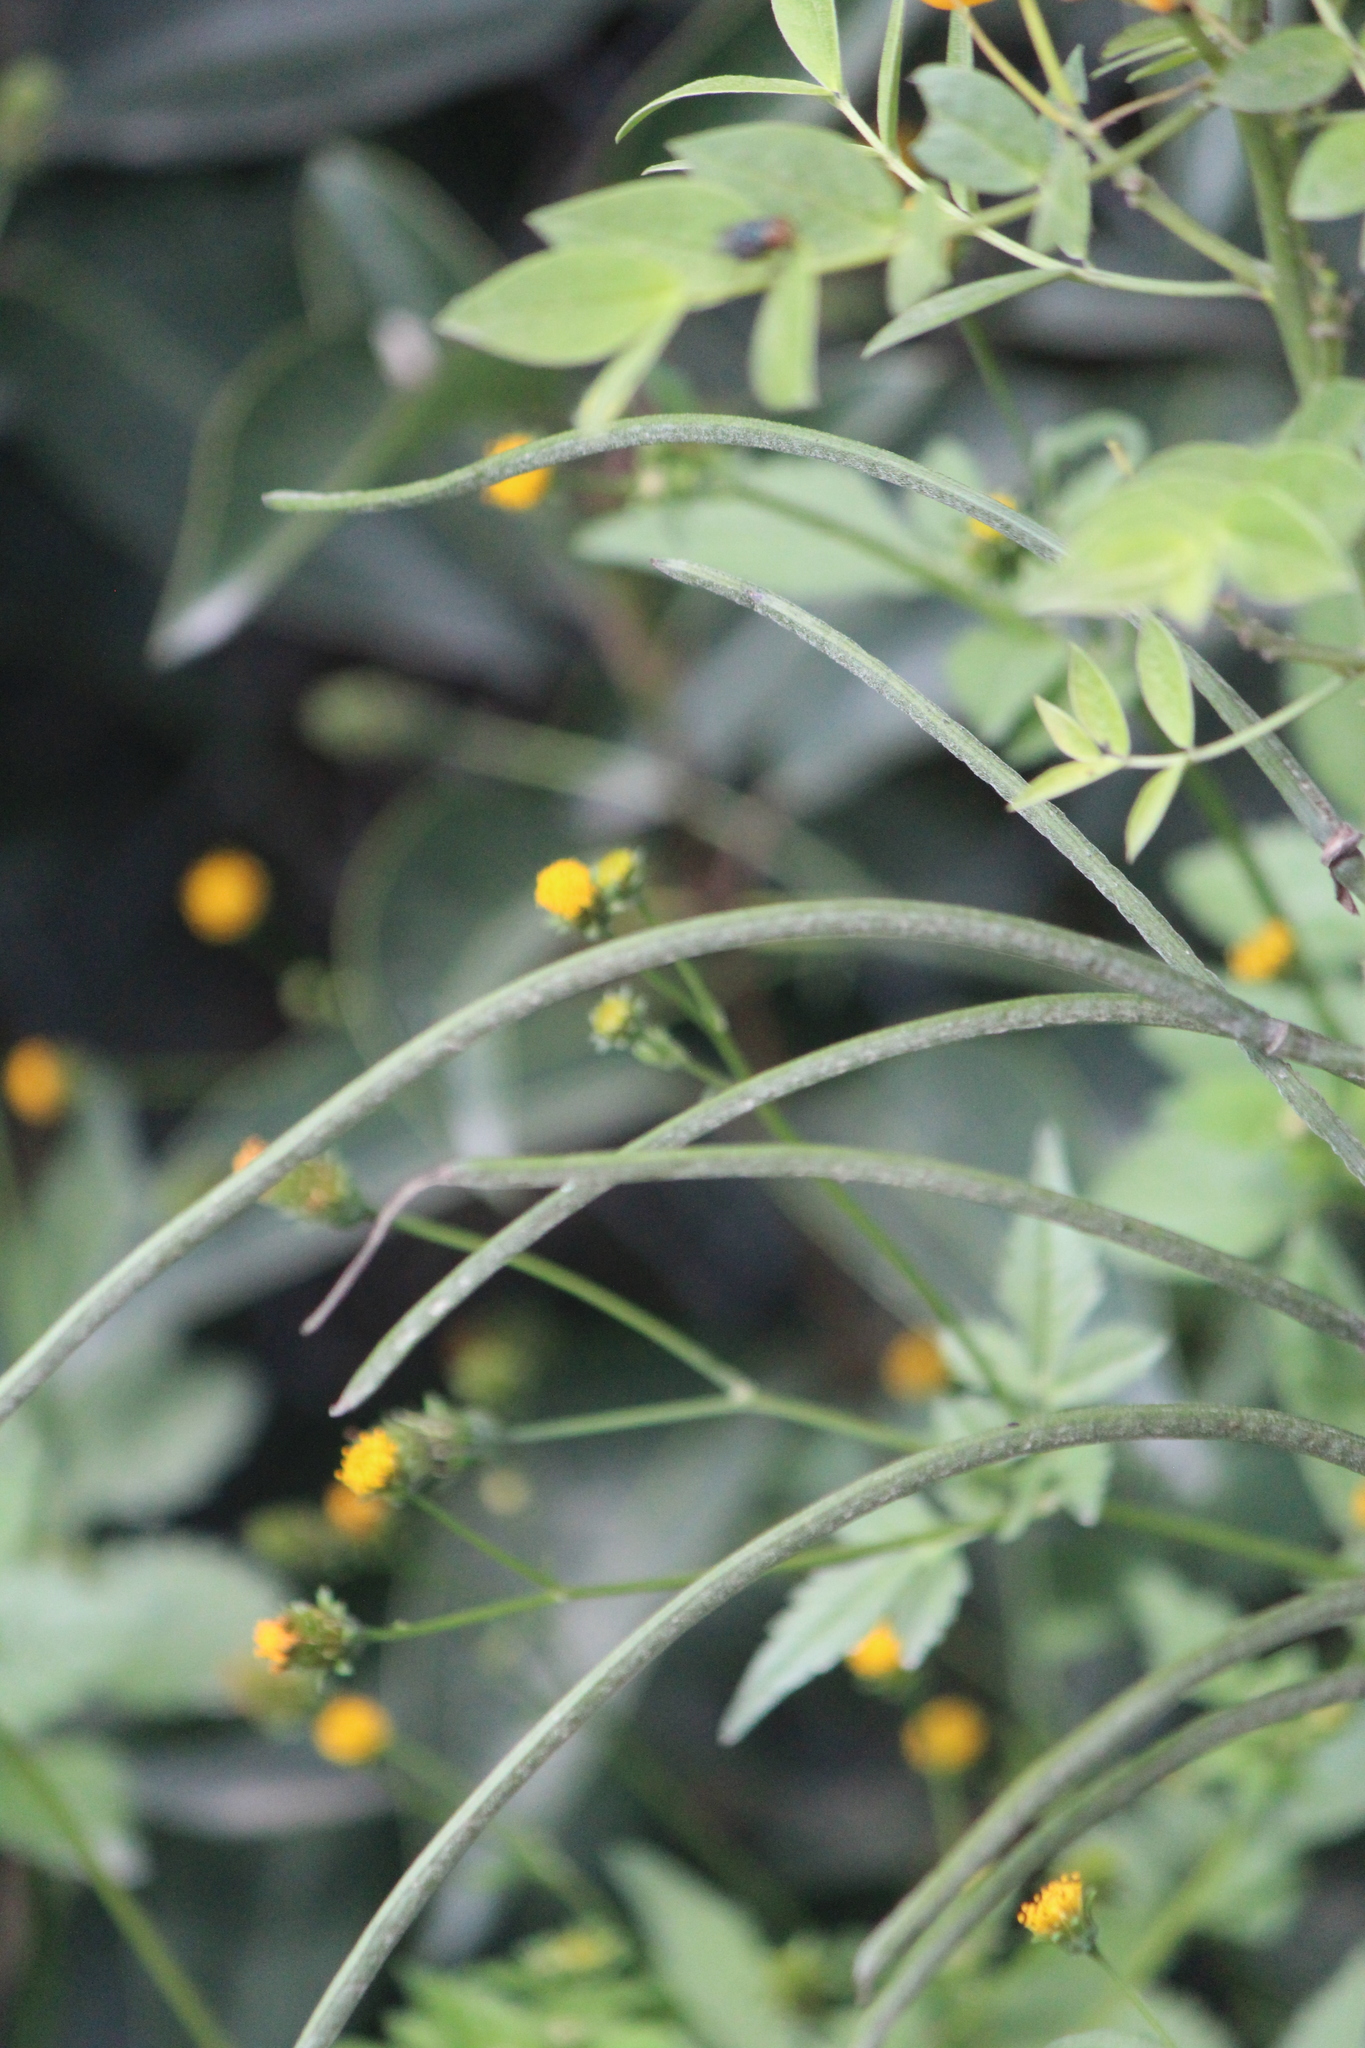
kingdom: Plantae
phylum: Tracheophyta
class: Magnoliopsida
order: Fabales
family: Fabaceae
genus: Senna
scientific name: Senna hirsuta
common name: Woolly senna
